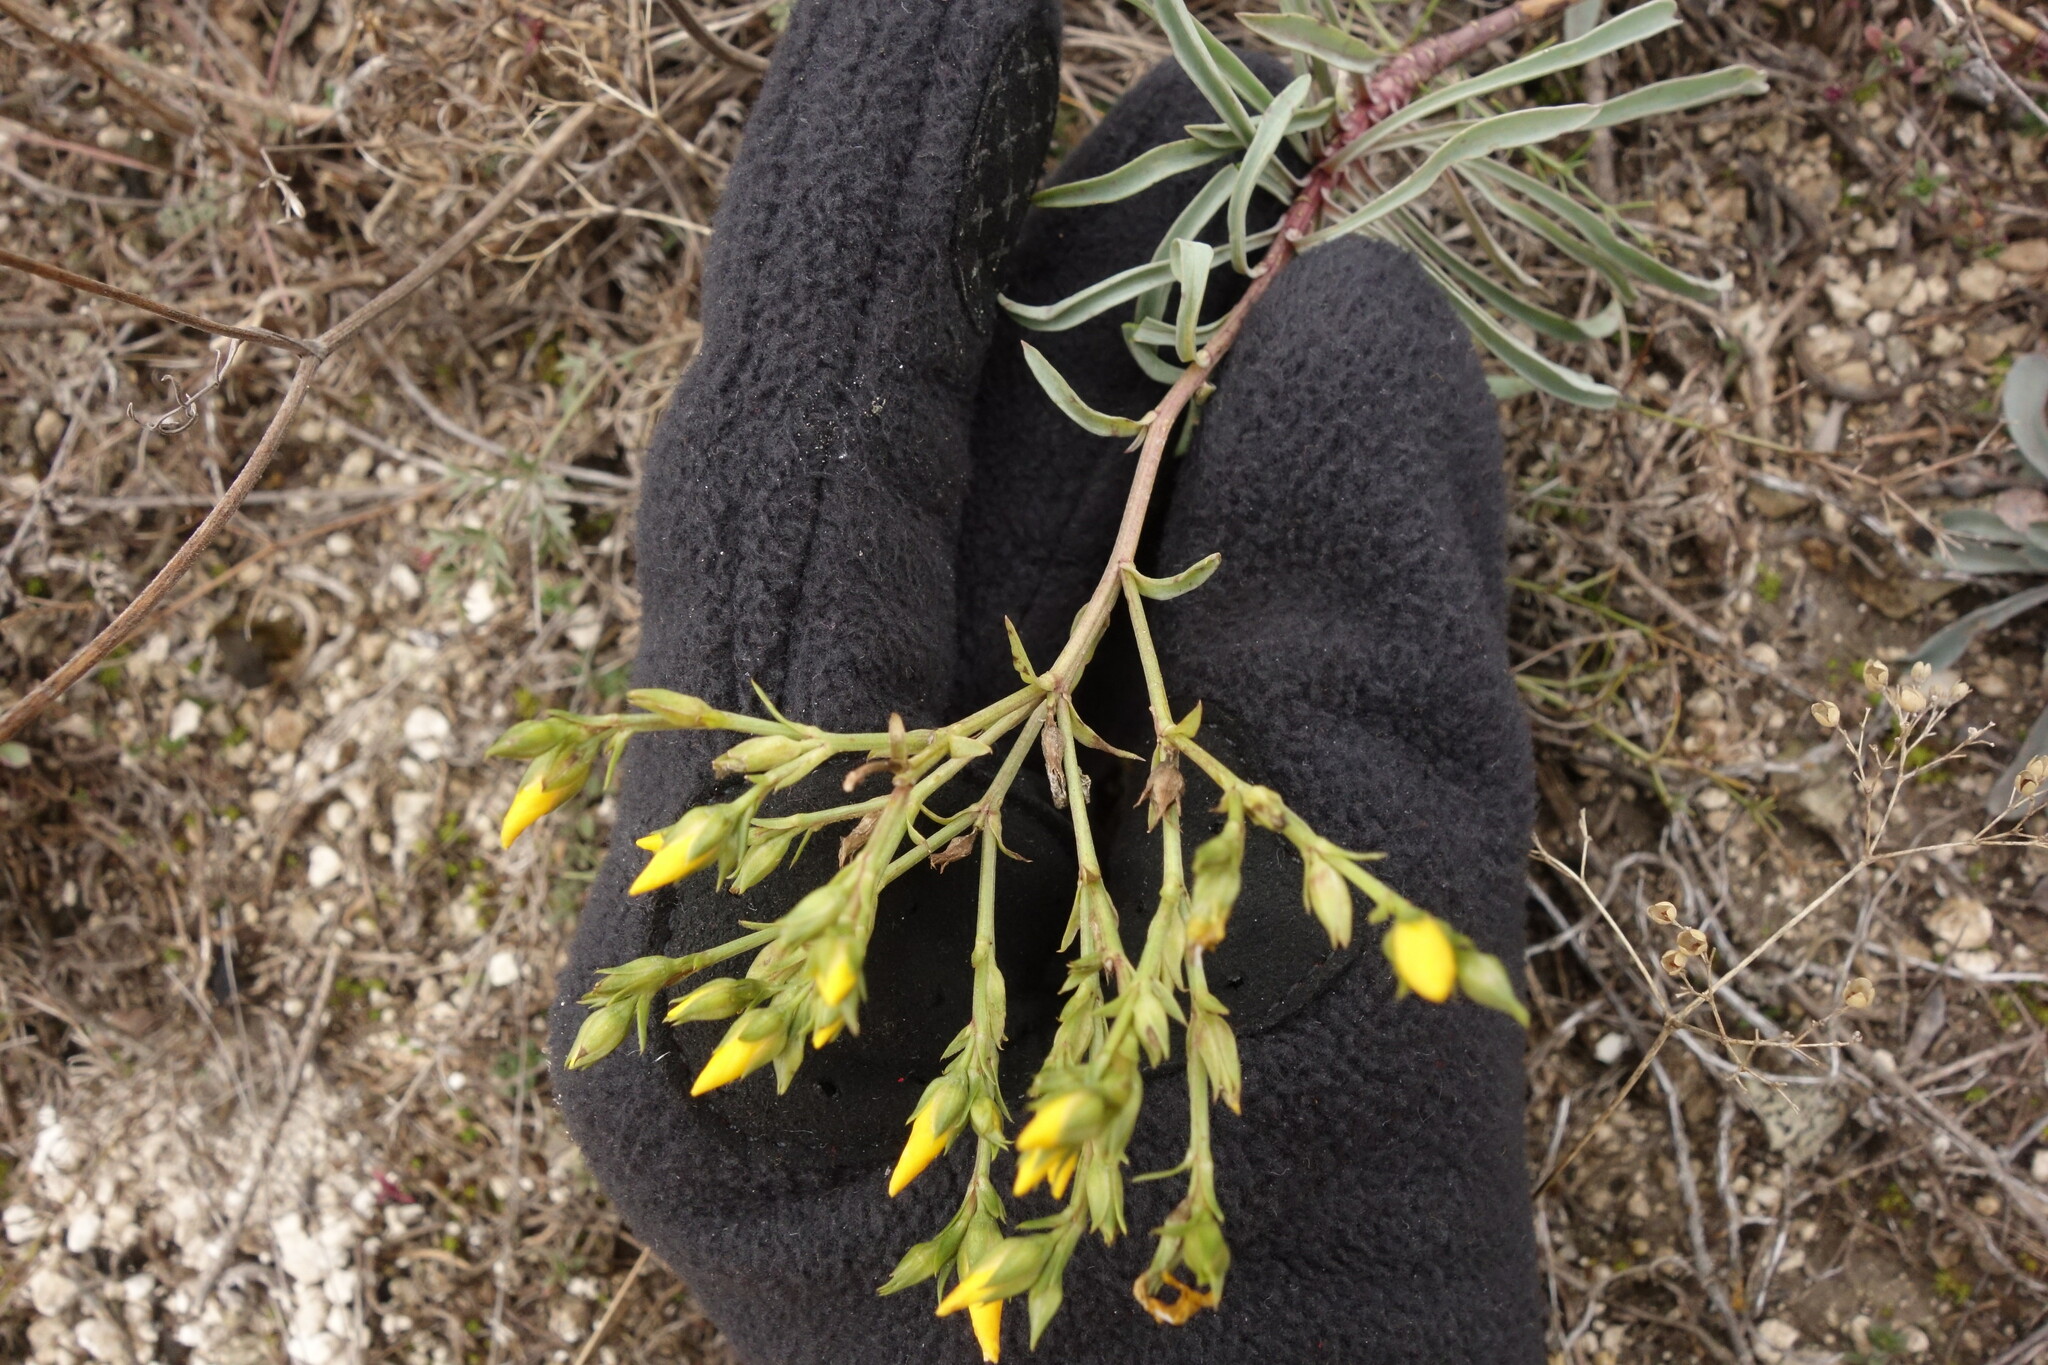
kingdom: Plantae
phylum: Tracheophyta
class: Magnoliopsida
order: Malpighiales
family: Linaceae
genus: Linum
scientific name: Linum ucranicum
